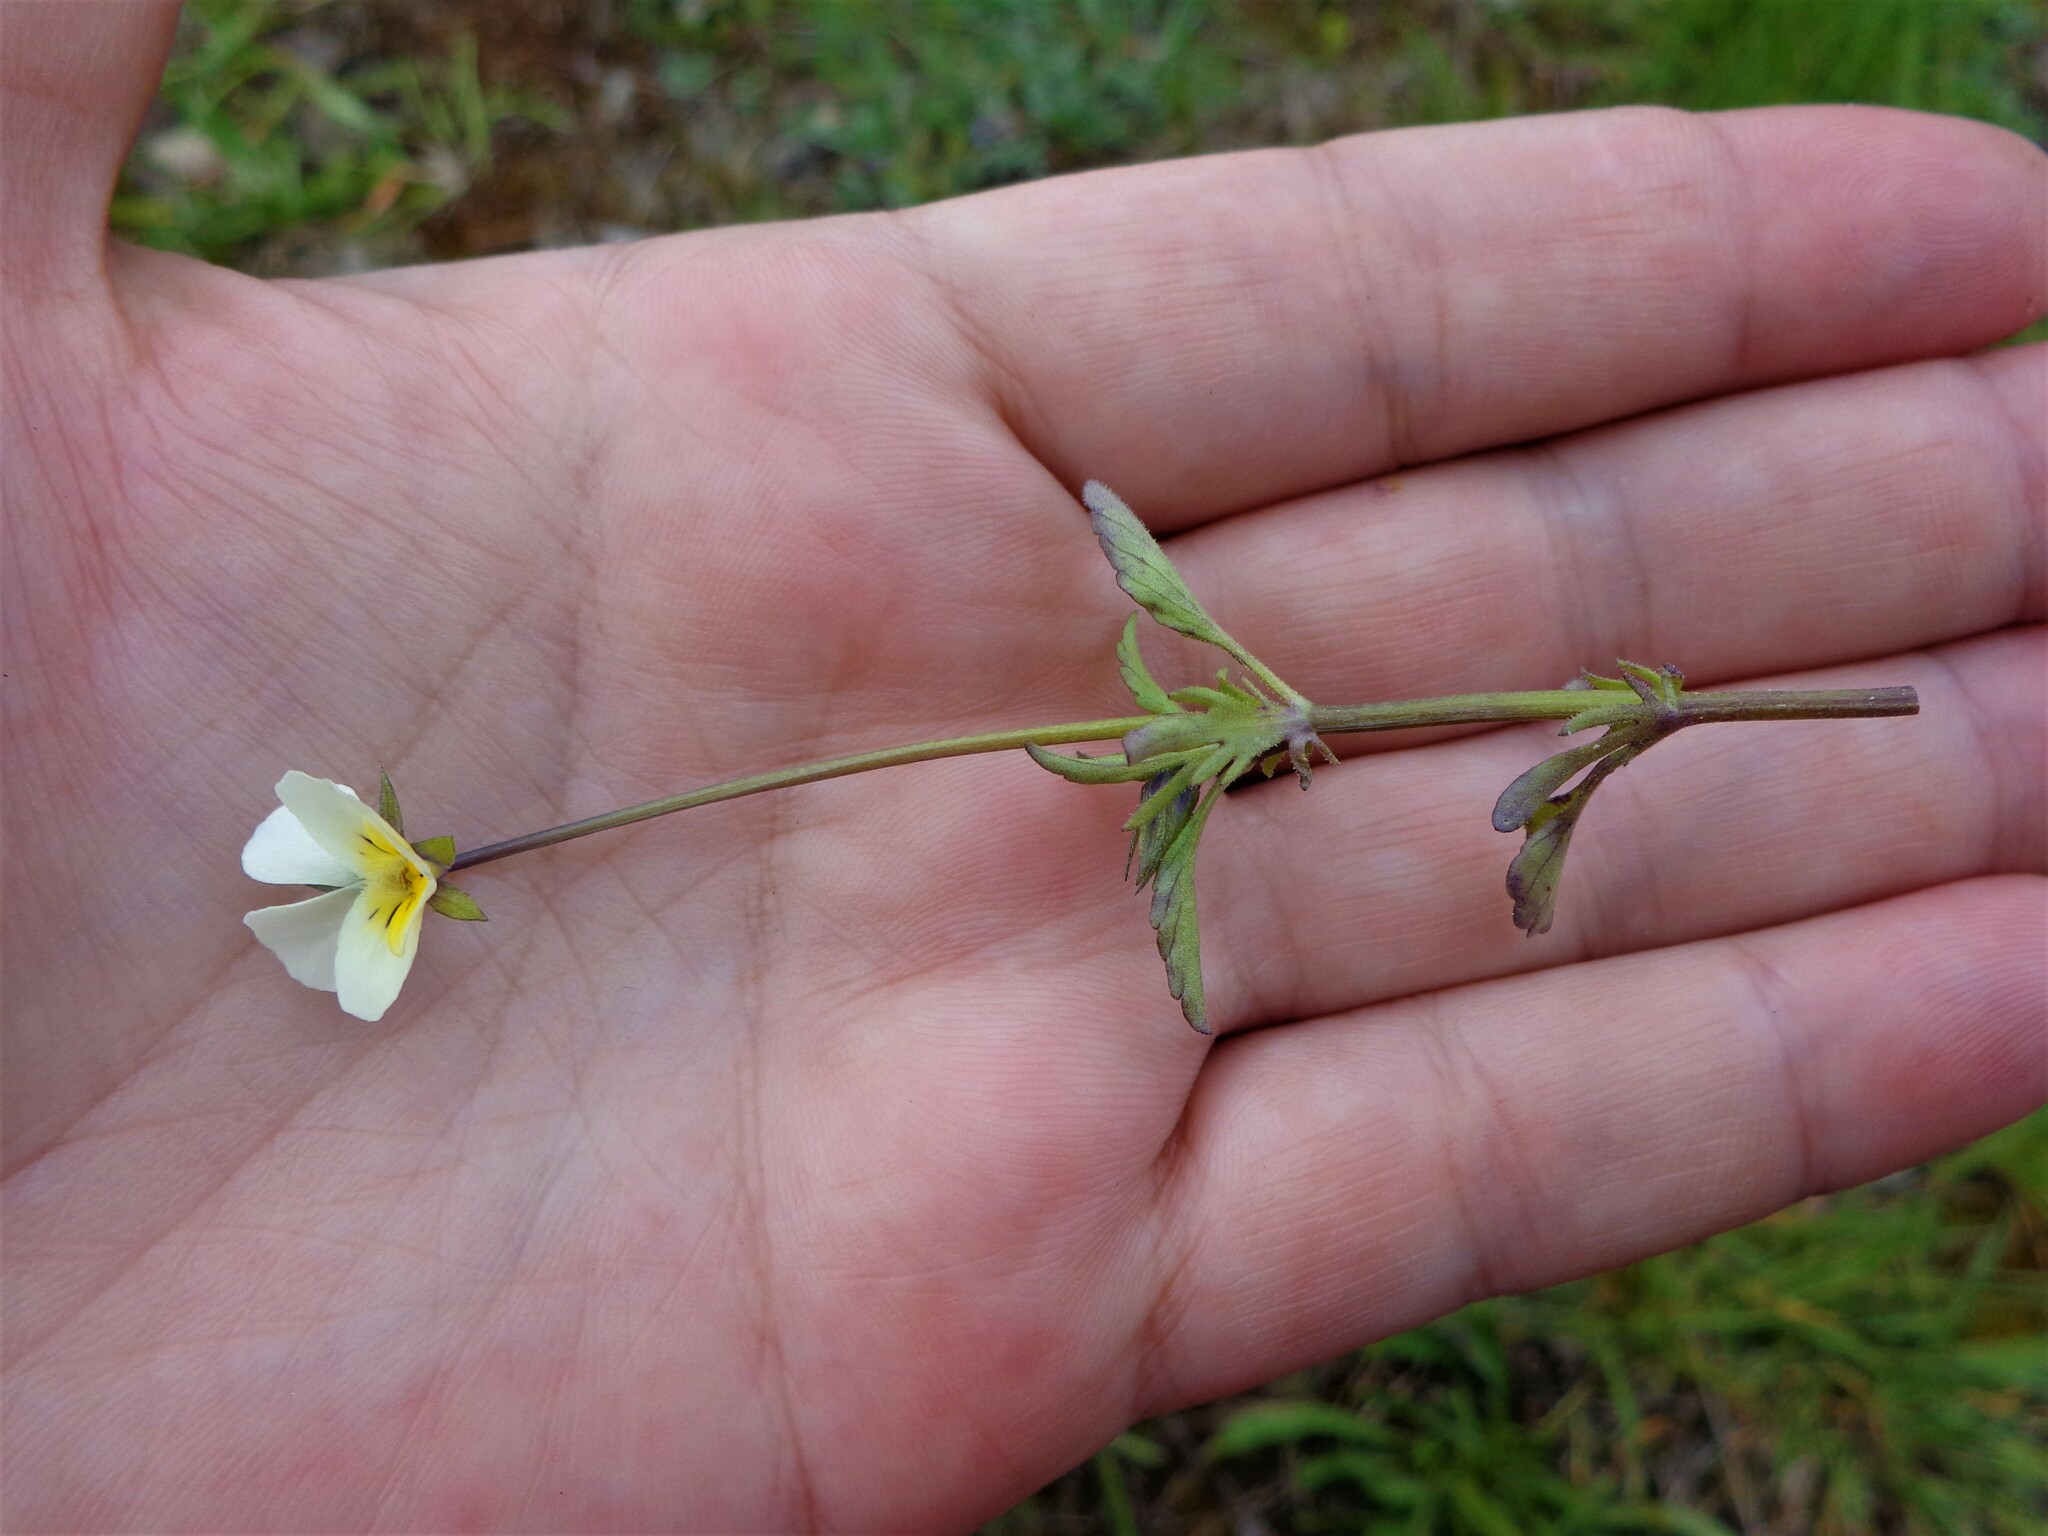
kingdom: Plantae
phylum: Tracheophyta
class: Magnoliopsida
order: Malpighiales
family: Violaceae
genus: Viola
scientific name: Viola arvensis
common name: Field pansy
